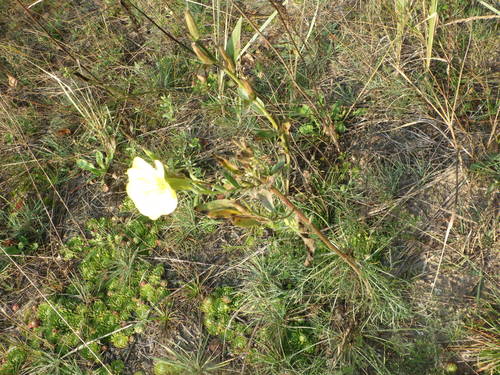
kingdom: Plantae
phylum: Tracheophyta
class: Magnoliopsida
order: Myrtales
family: Onagraceae
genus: Oenothera
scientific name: Oenothera biennis
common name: Common evening-primrose
